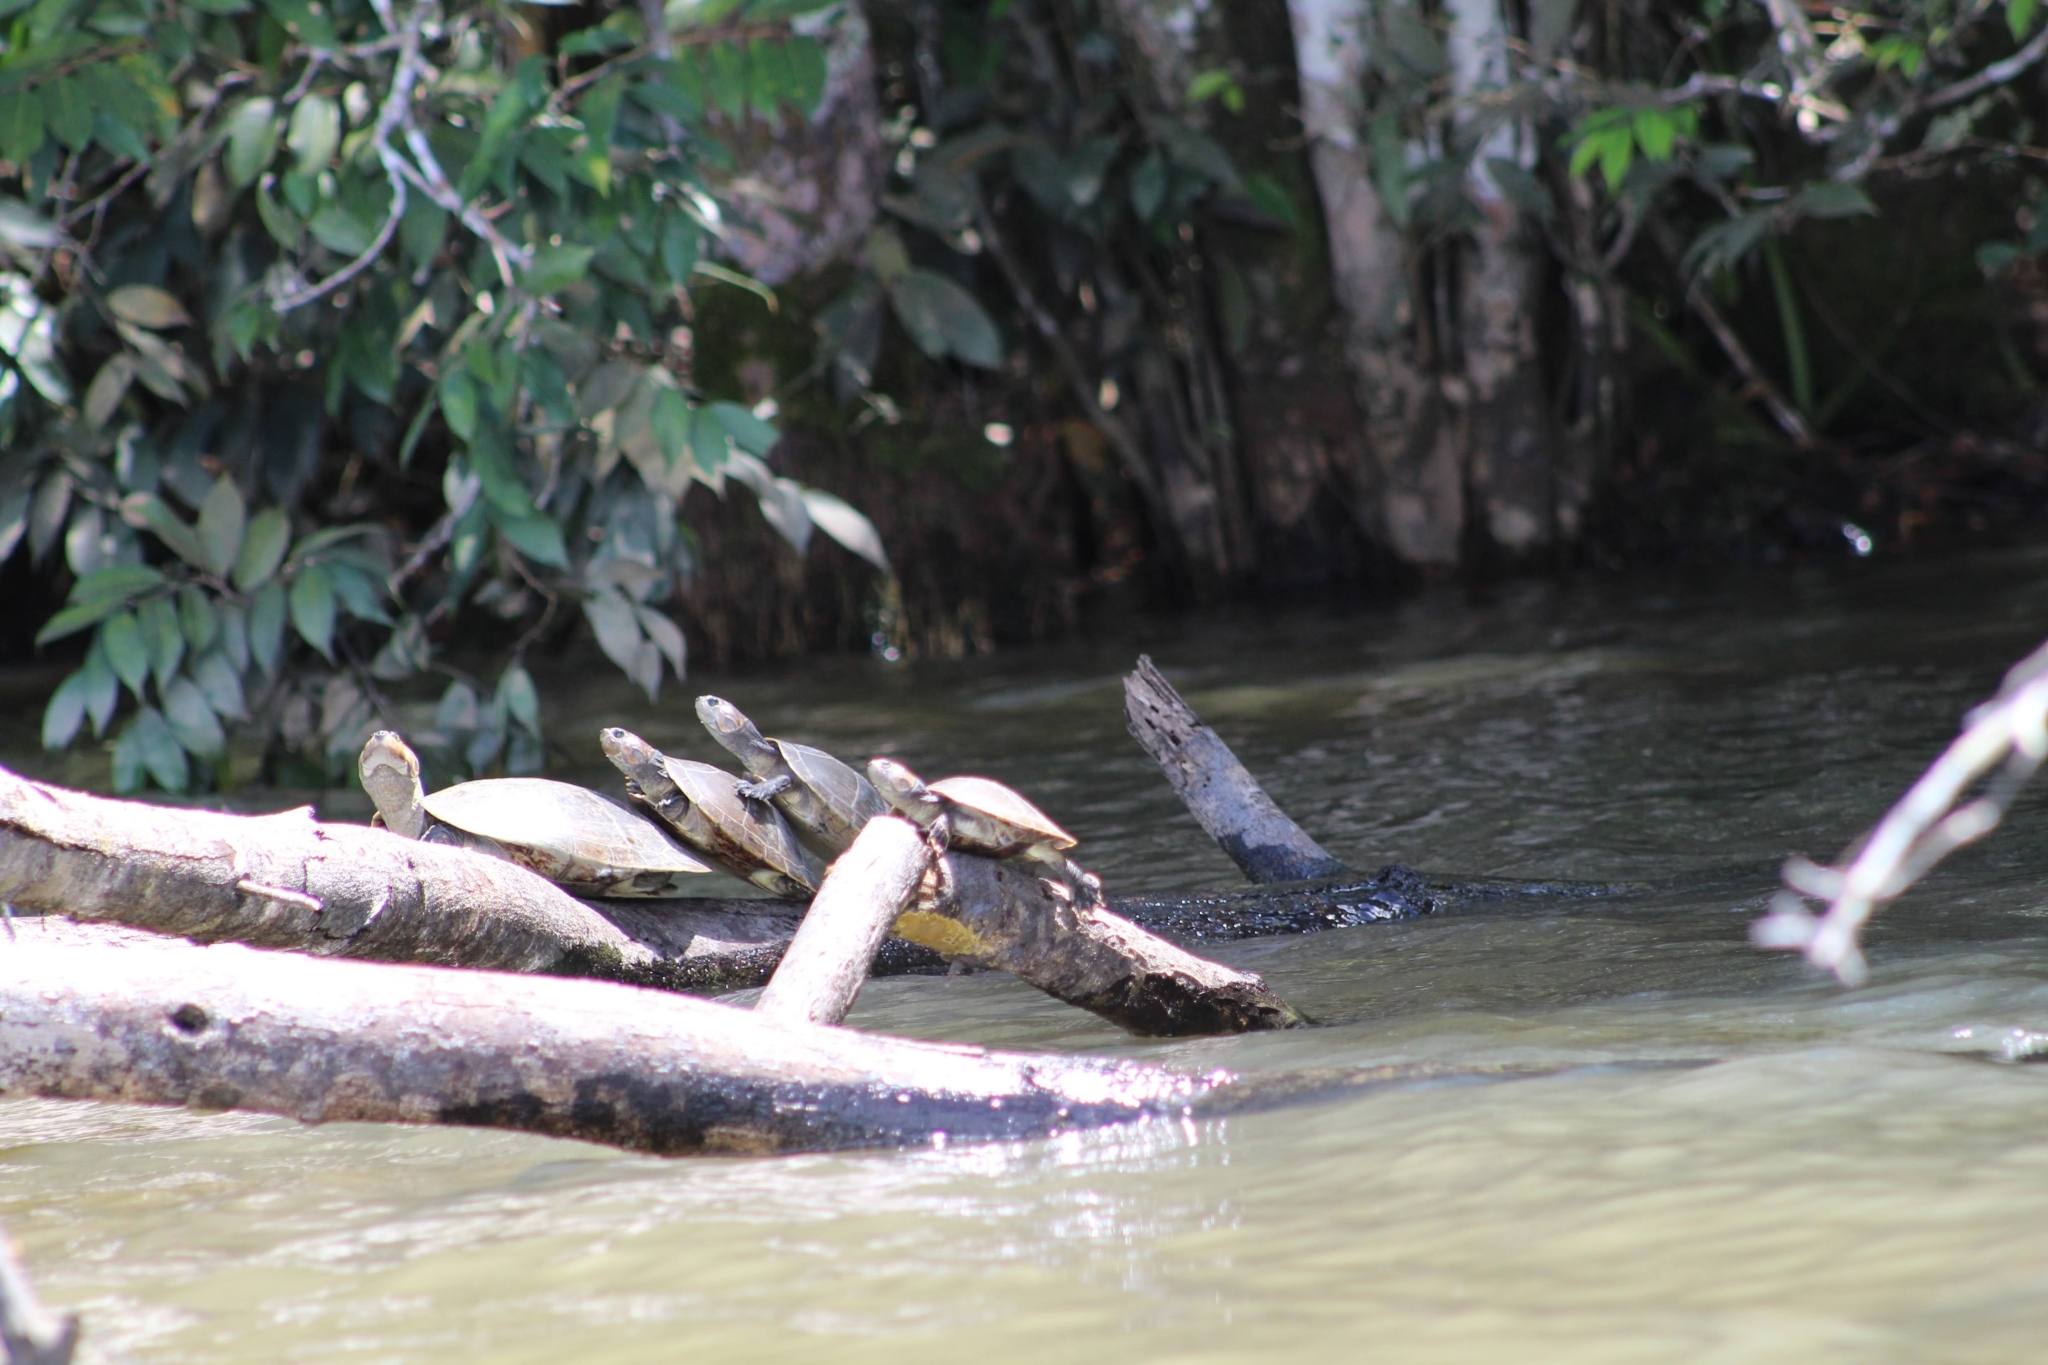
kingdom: Animalia
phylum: Chordata
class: Testudines
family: Podocnemididae
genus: Podocnemis
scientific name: Podocnemis vogli
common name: Savanna side-necked turtle
